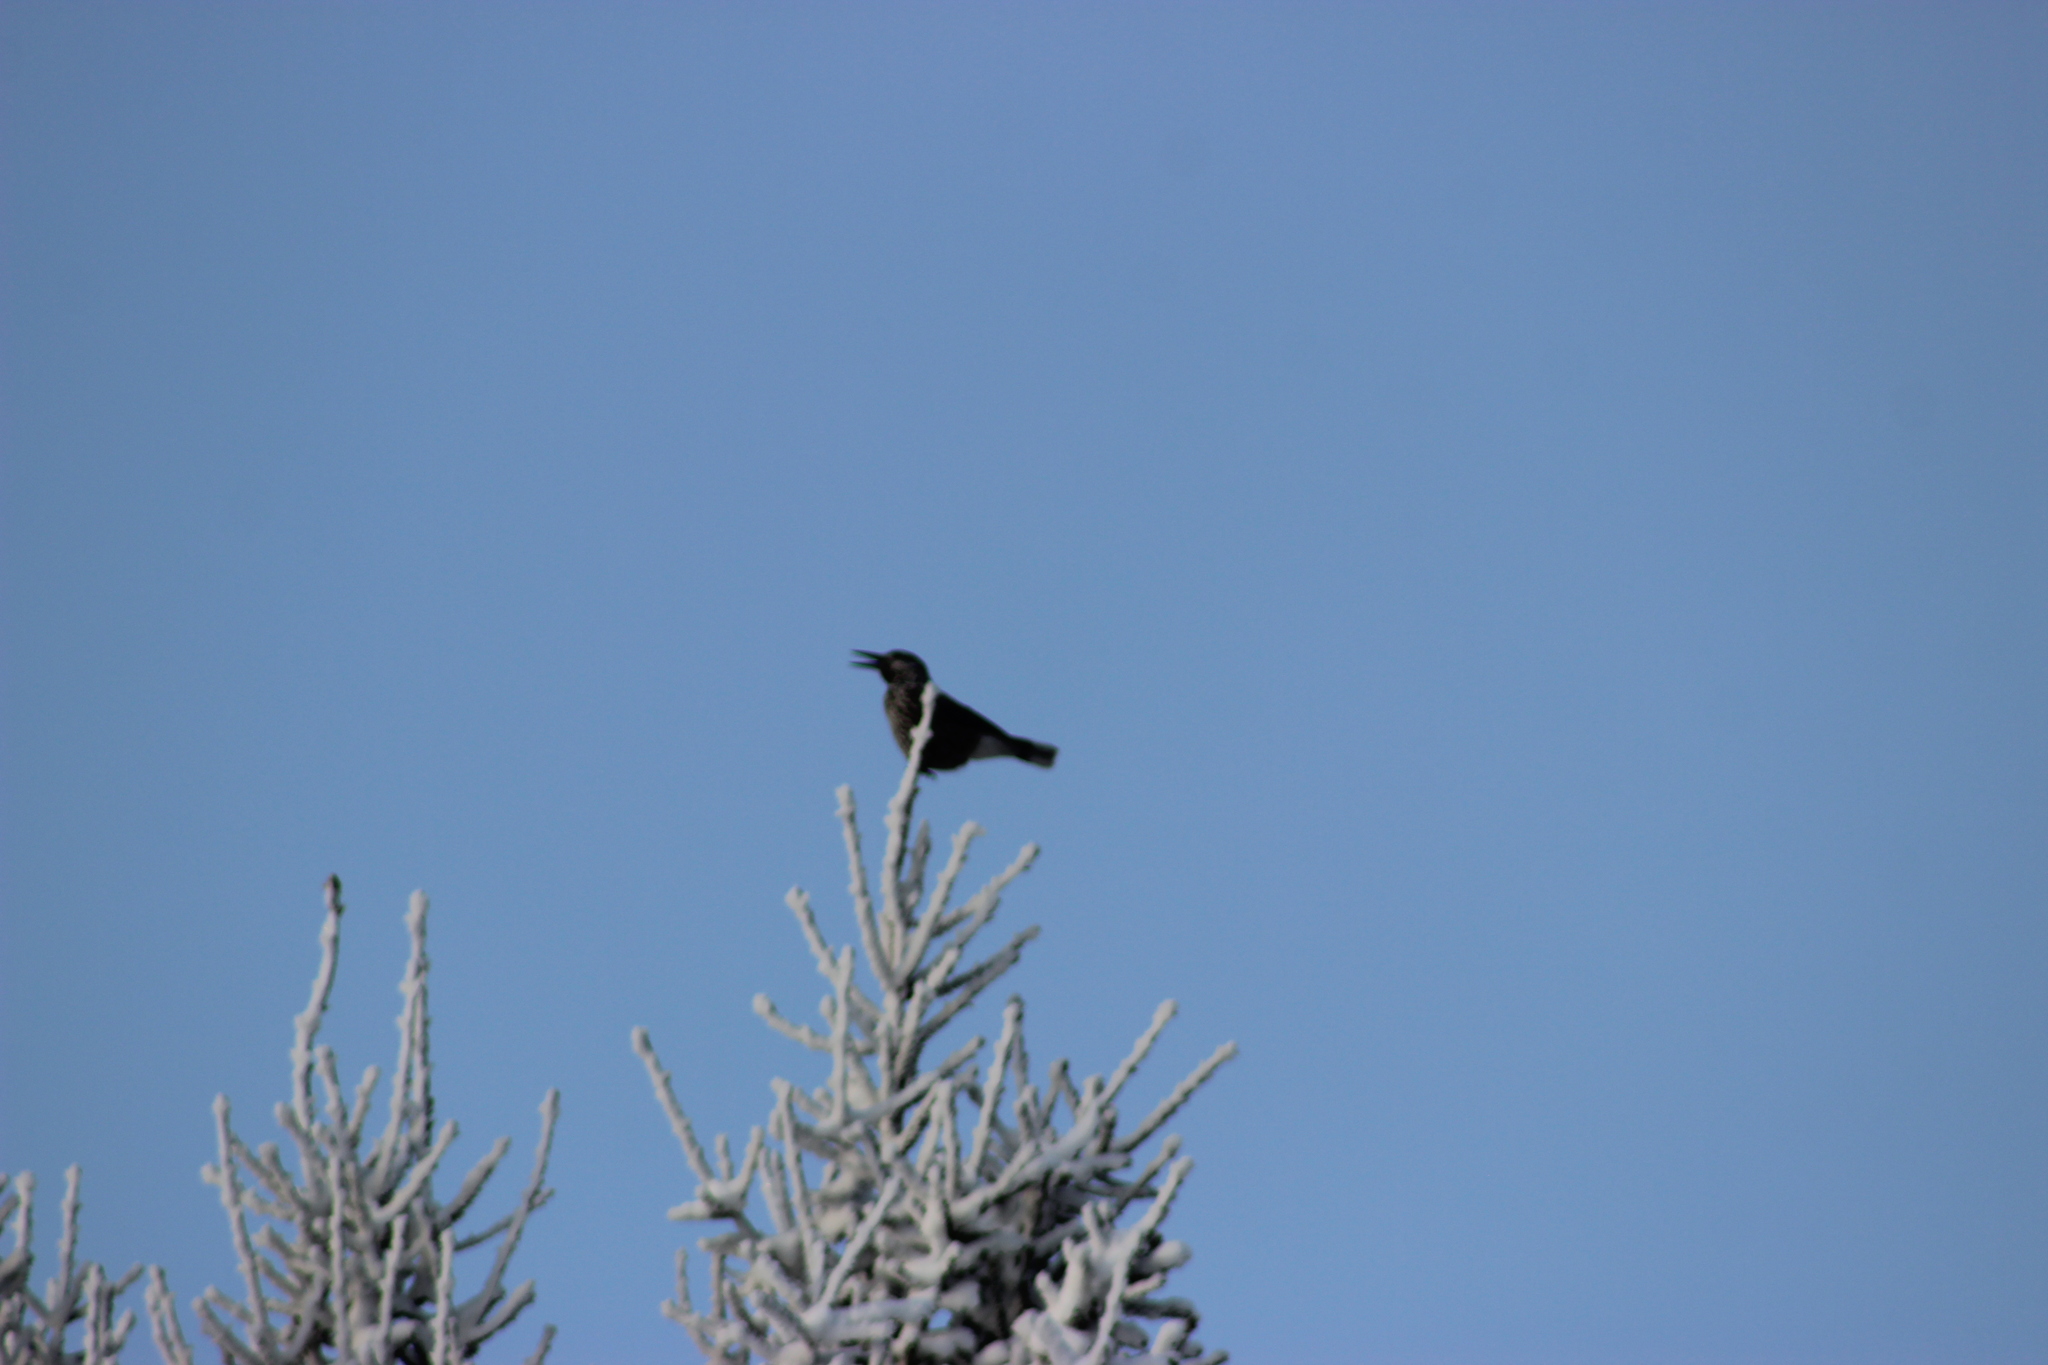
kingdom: Animalia
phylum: Chordata
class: Aves
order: Passeriformes
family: Corvidae
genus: Nucifraga
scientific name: Nucifraga caryocatactes
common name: Spotted nutcracker
